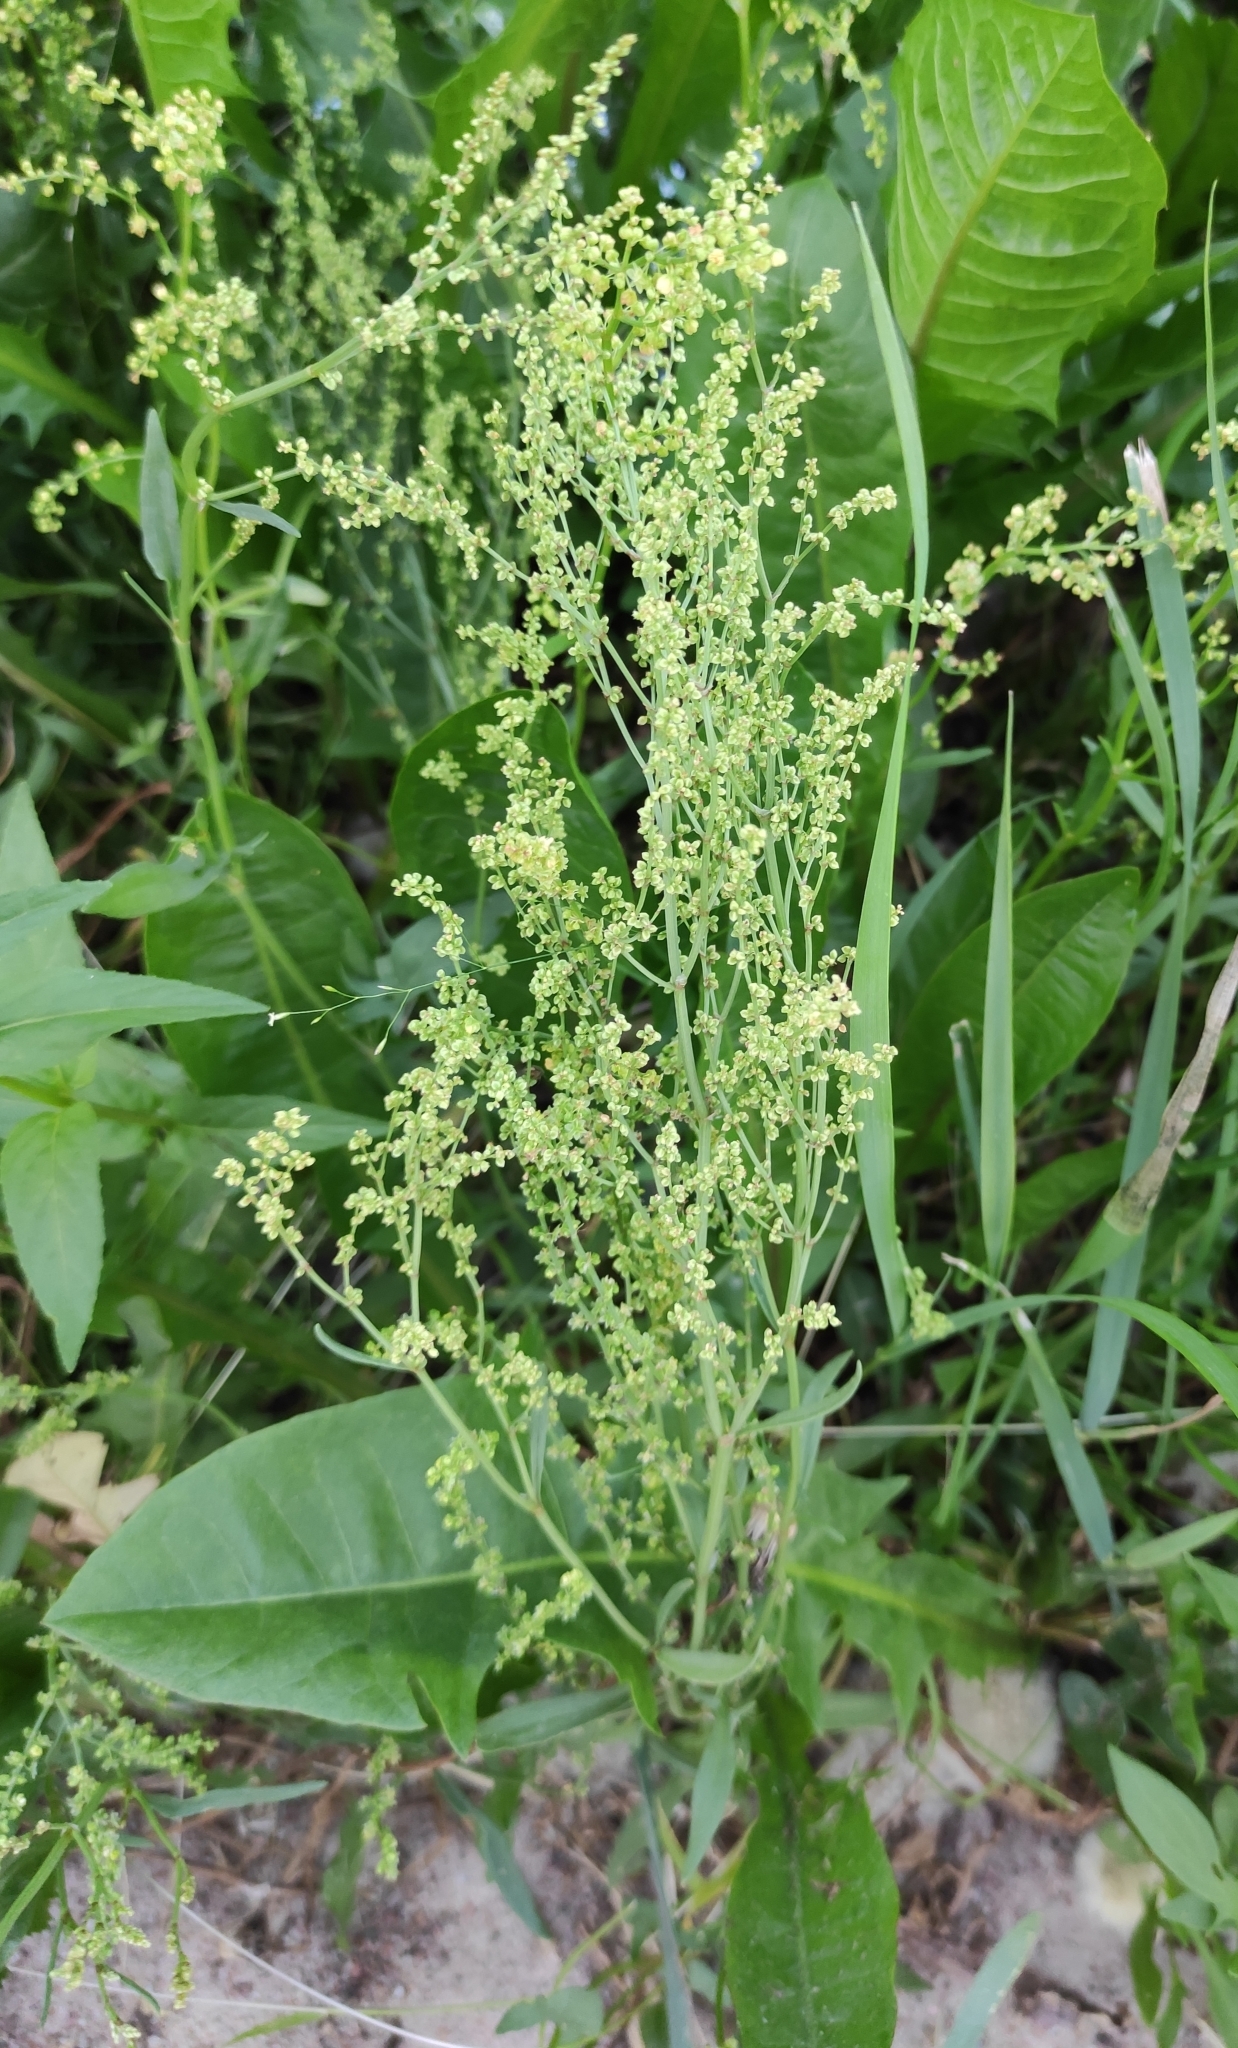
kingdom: Plantae
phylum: Tracheophyta
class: Magnoliopsida
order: Caryophyllales
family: Polygonaceae
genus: Rumex
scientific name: Rumex acetosella
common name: Common sheep sorrel
